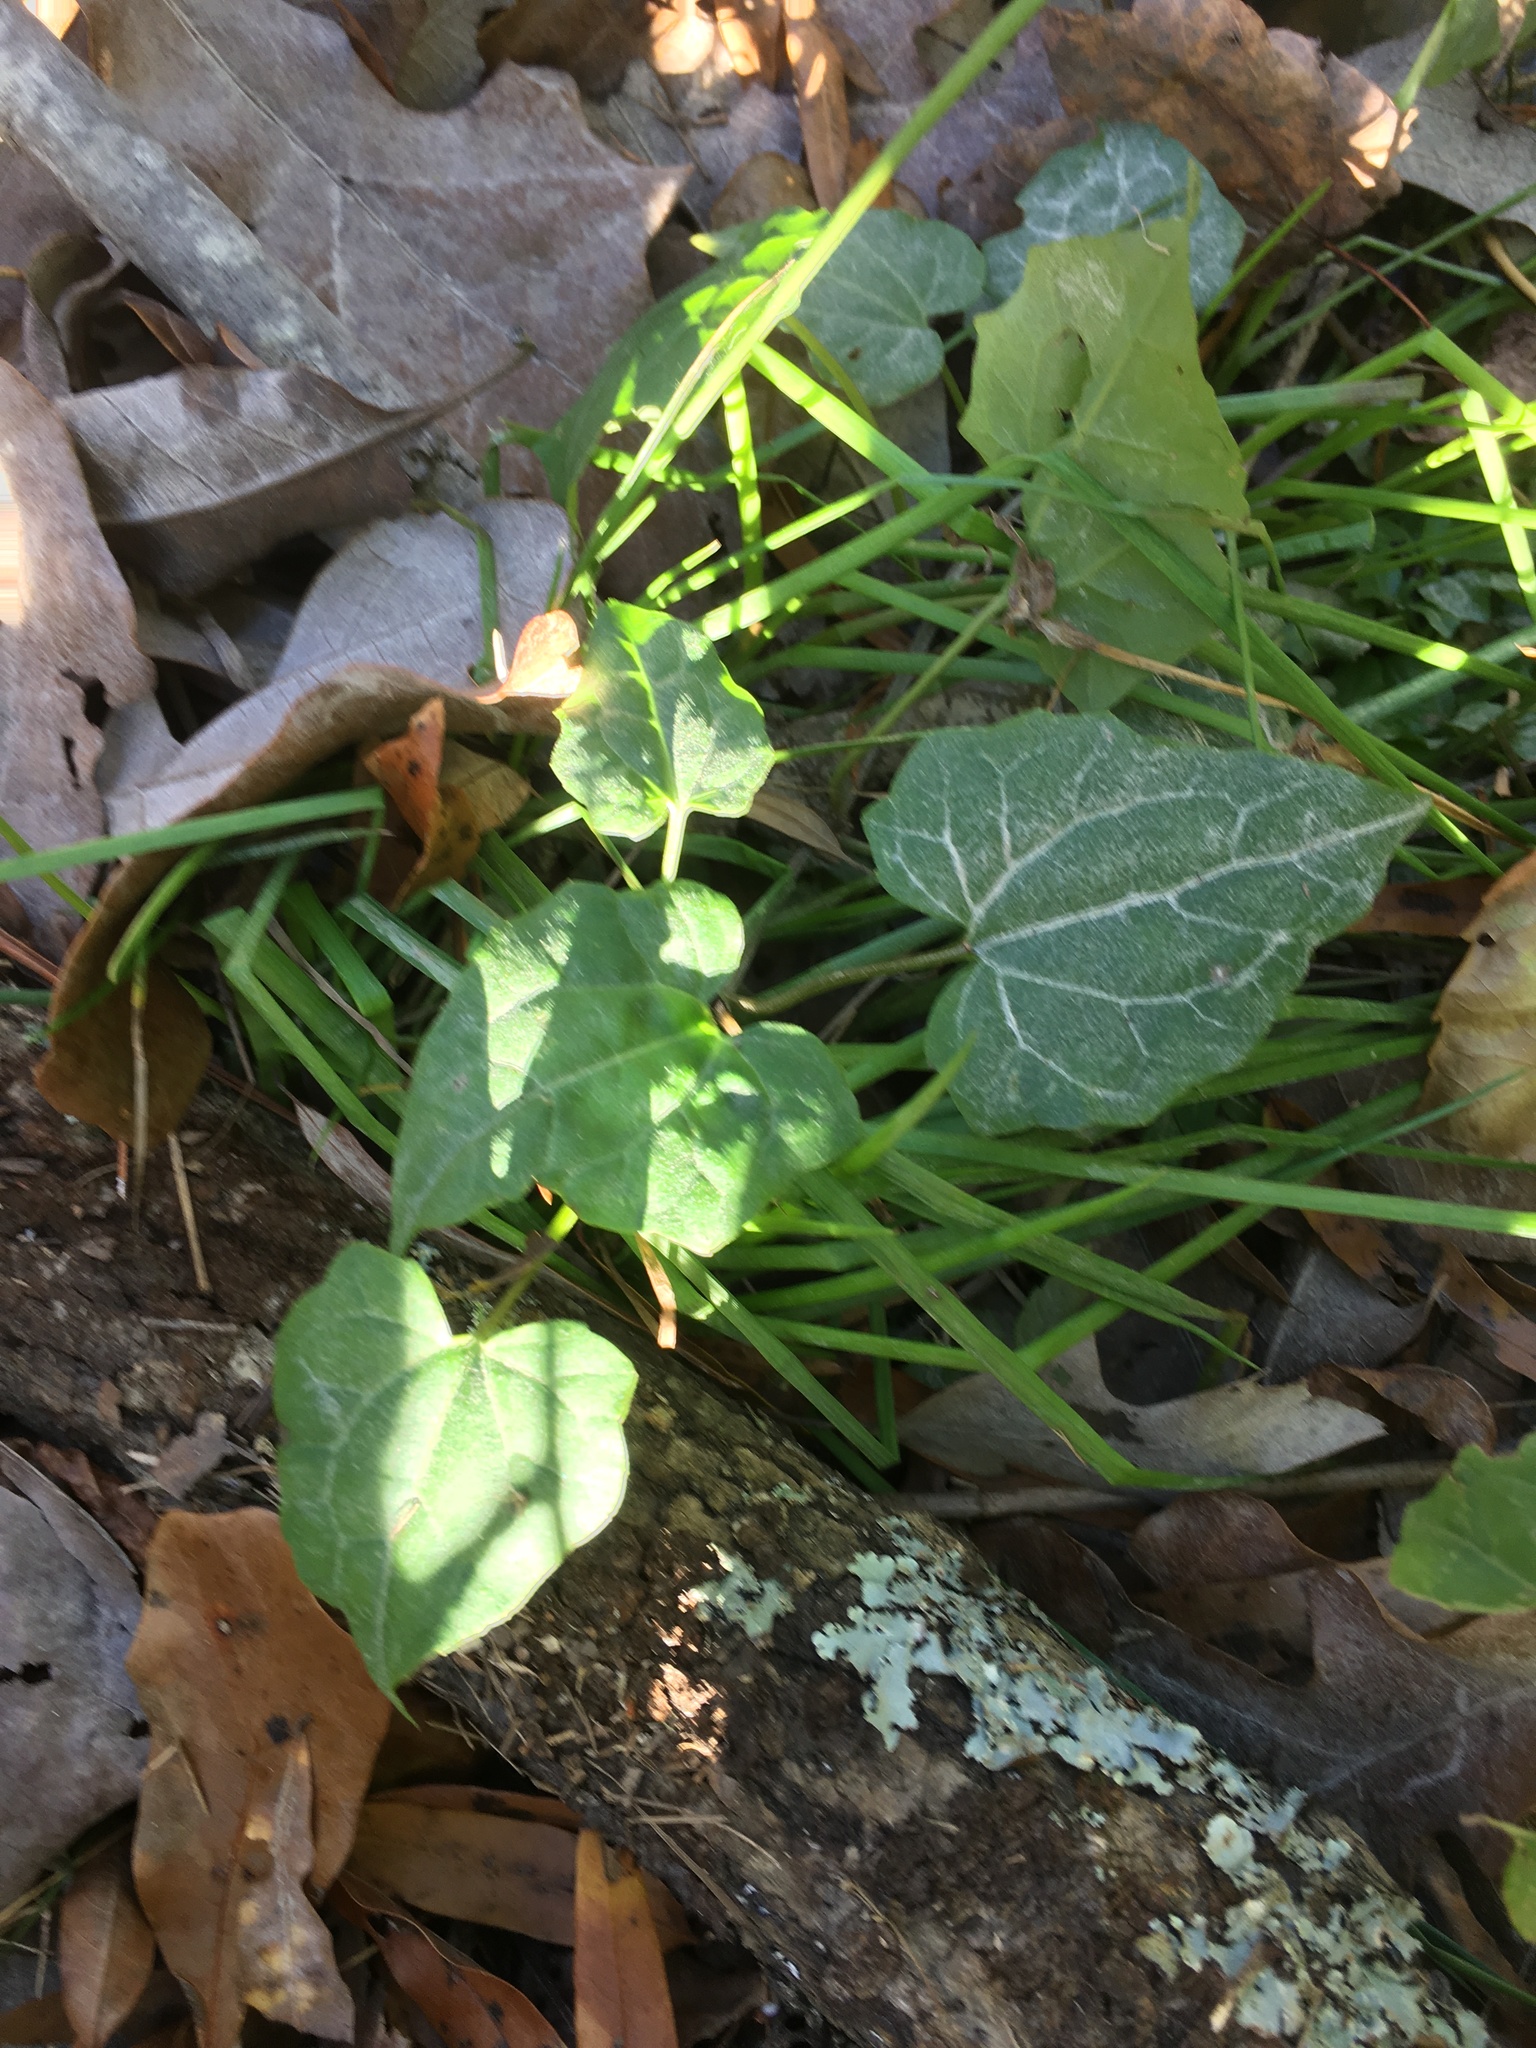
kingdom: Plantae
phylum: Tracheophyta
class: Magnoliopsida
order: Asterales
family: Asteraceae
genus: Mikania
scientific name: Mikania scandens
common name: Climbing hempvine
